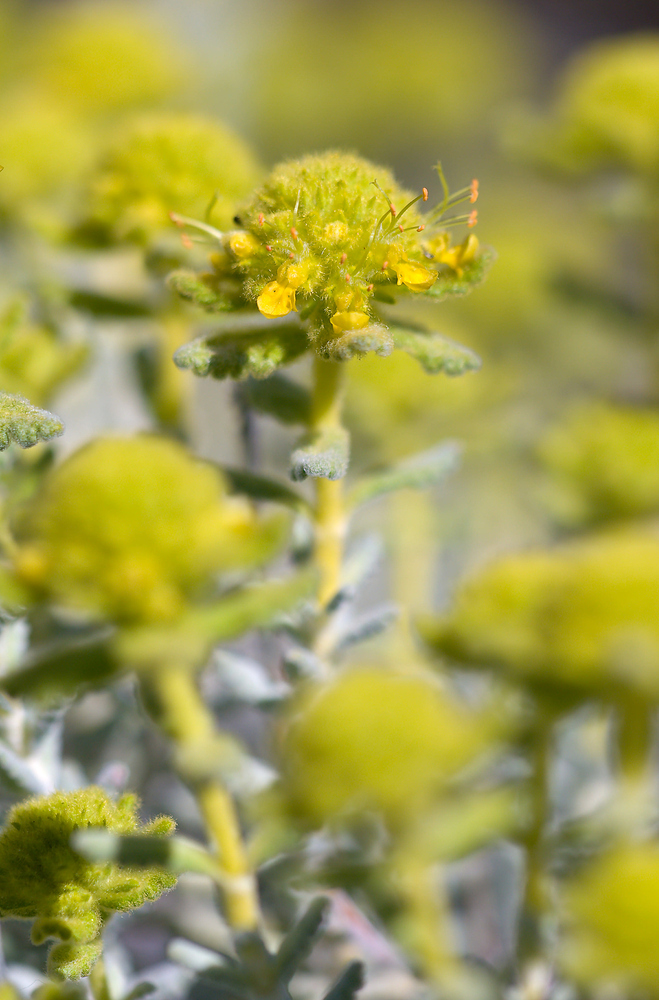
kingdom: Plantae
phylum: Tracheophyta
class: Magnoliopsida
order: Lamiales
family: Lamiaceae
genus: Teucrium
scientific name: Teucrium aureum
